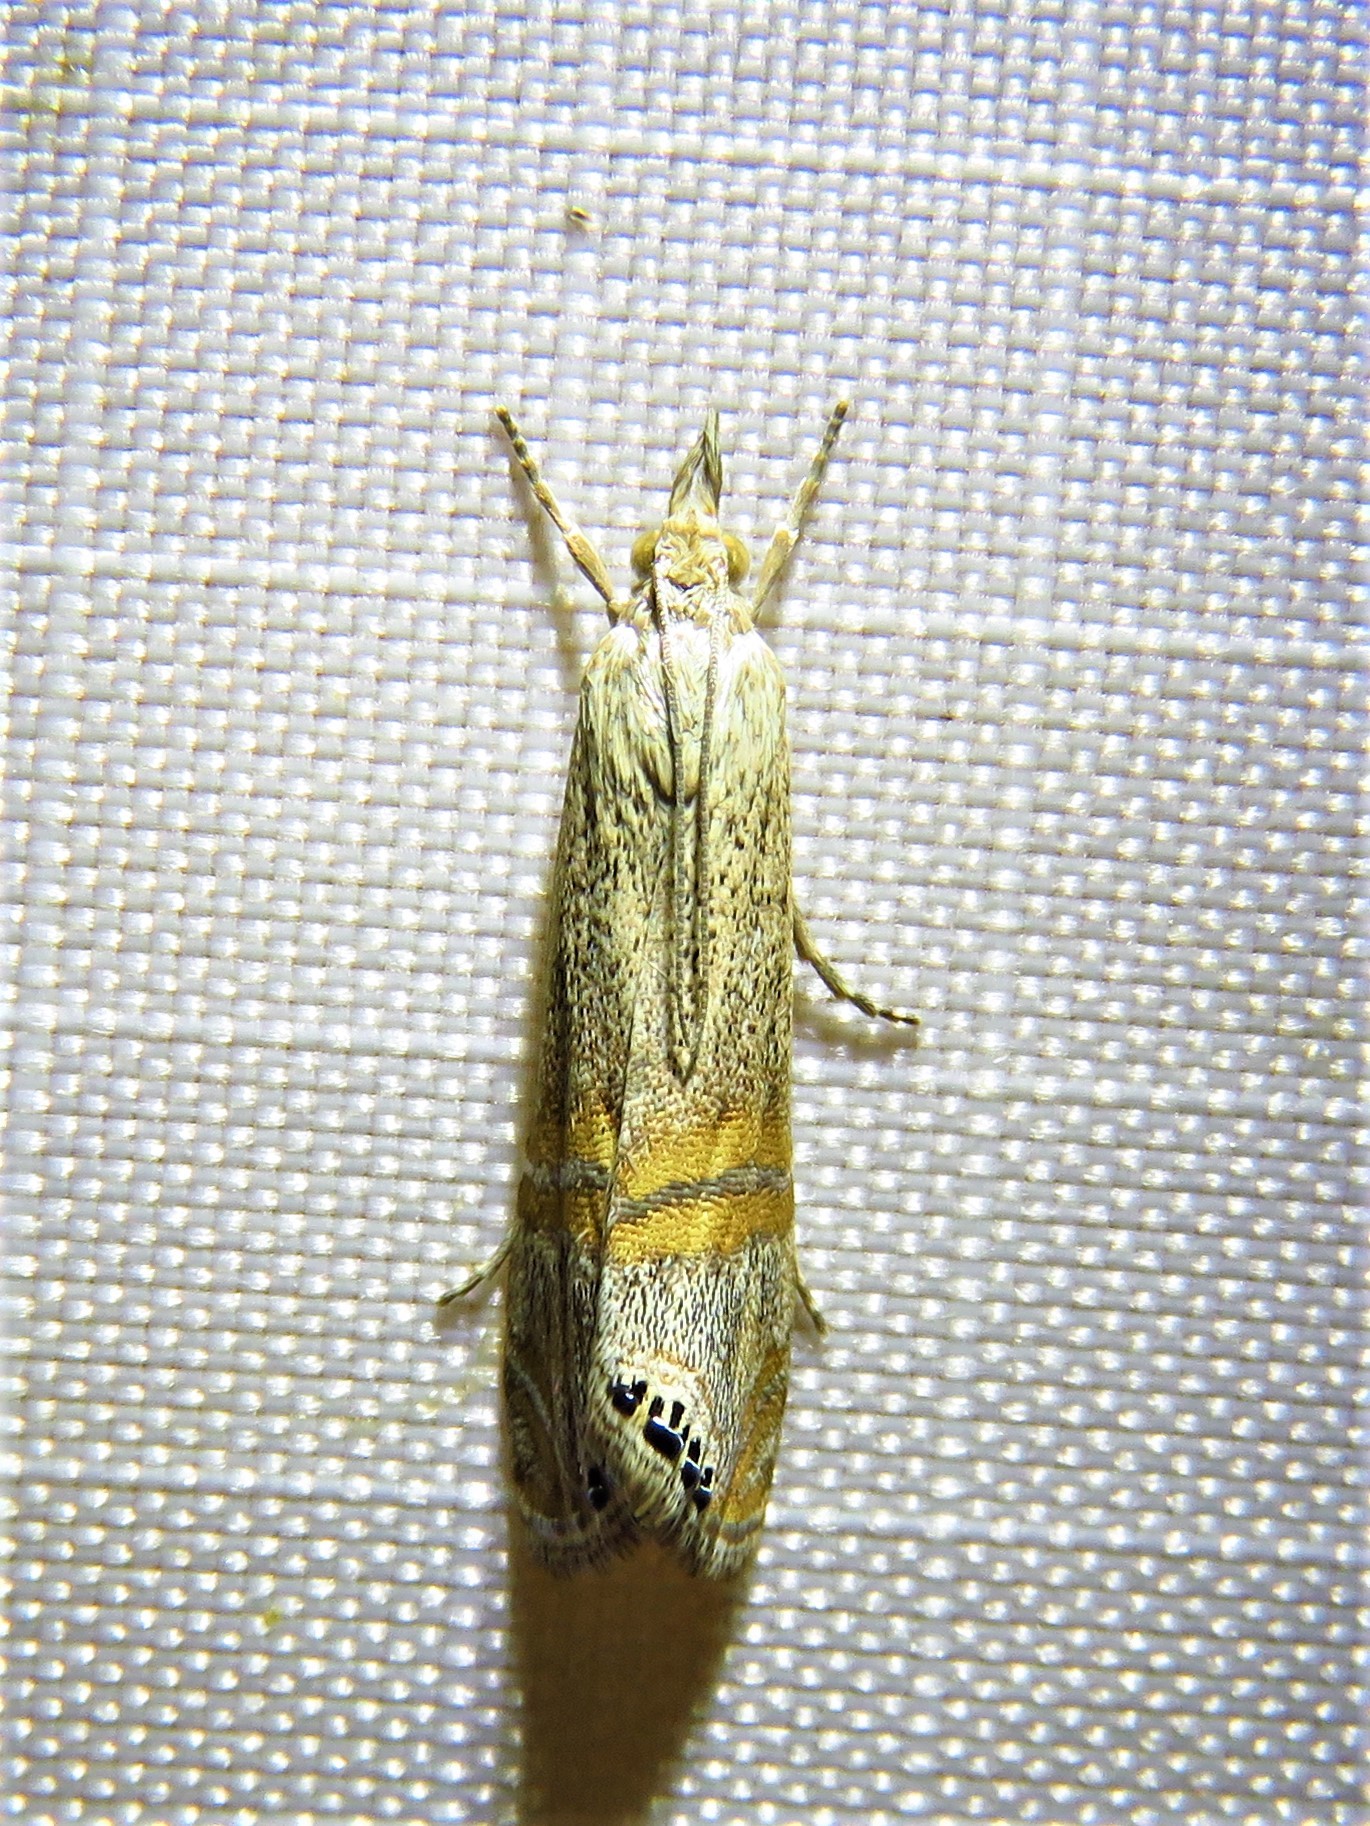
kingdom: Animalia
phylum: Arthropoda
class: Insecta
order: Lepidoptera
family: Crambidae
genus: Euchromius
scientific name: Euchromius ocellea
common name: Necklace veneer moth
